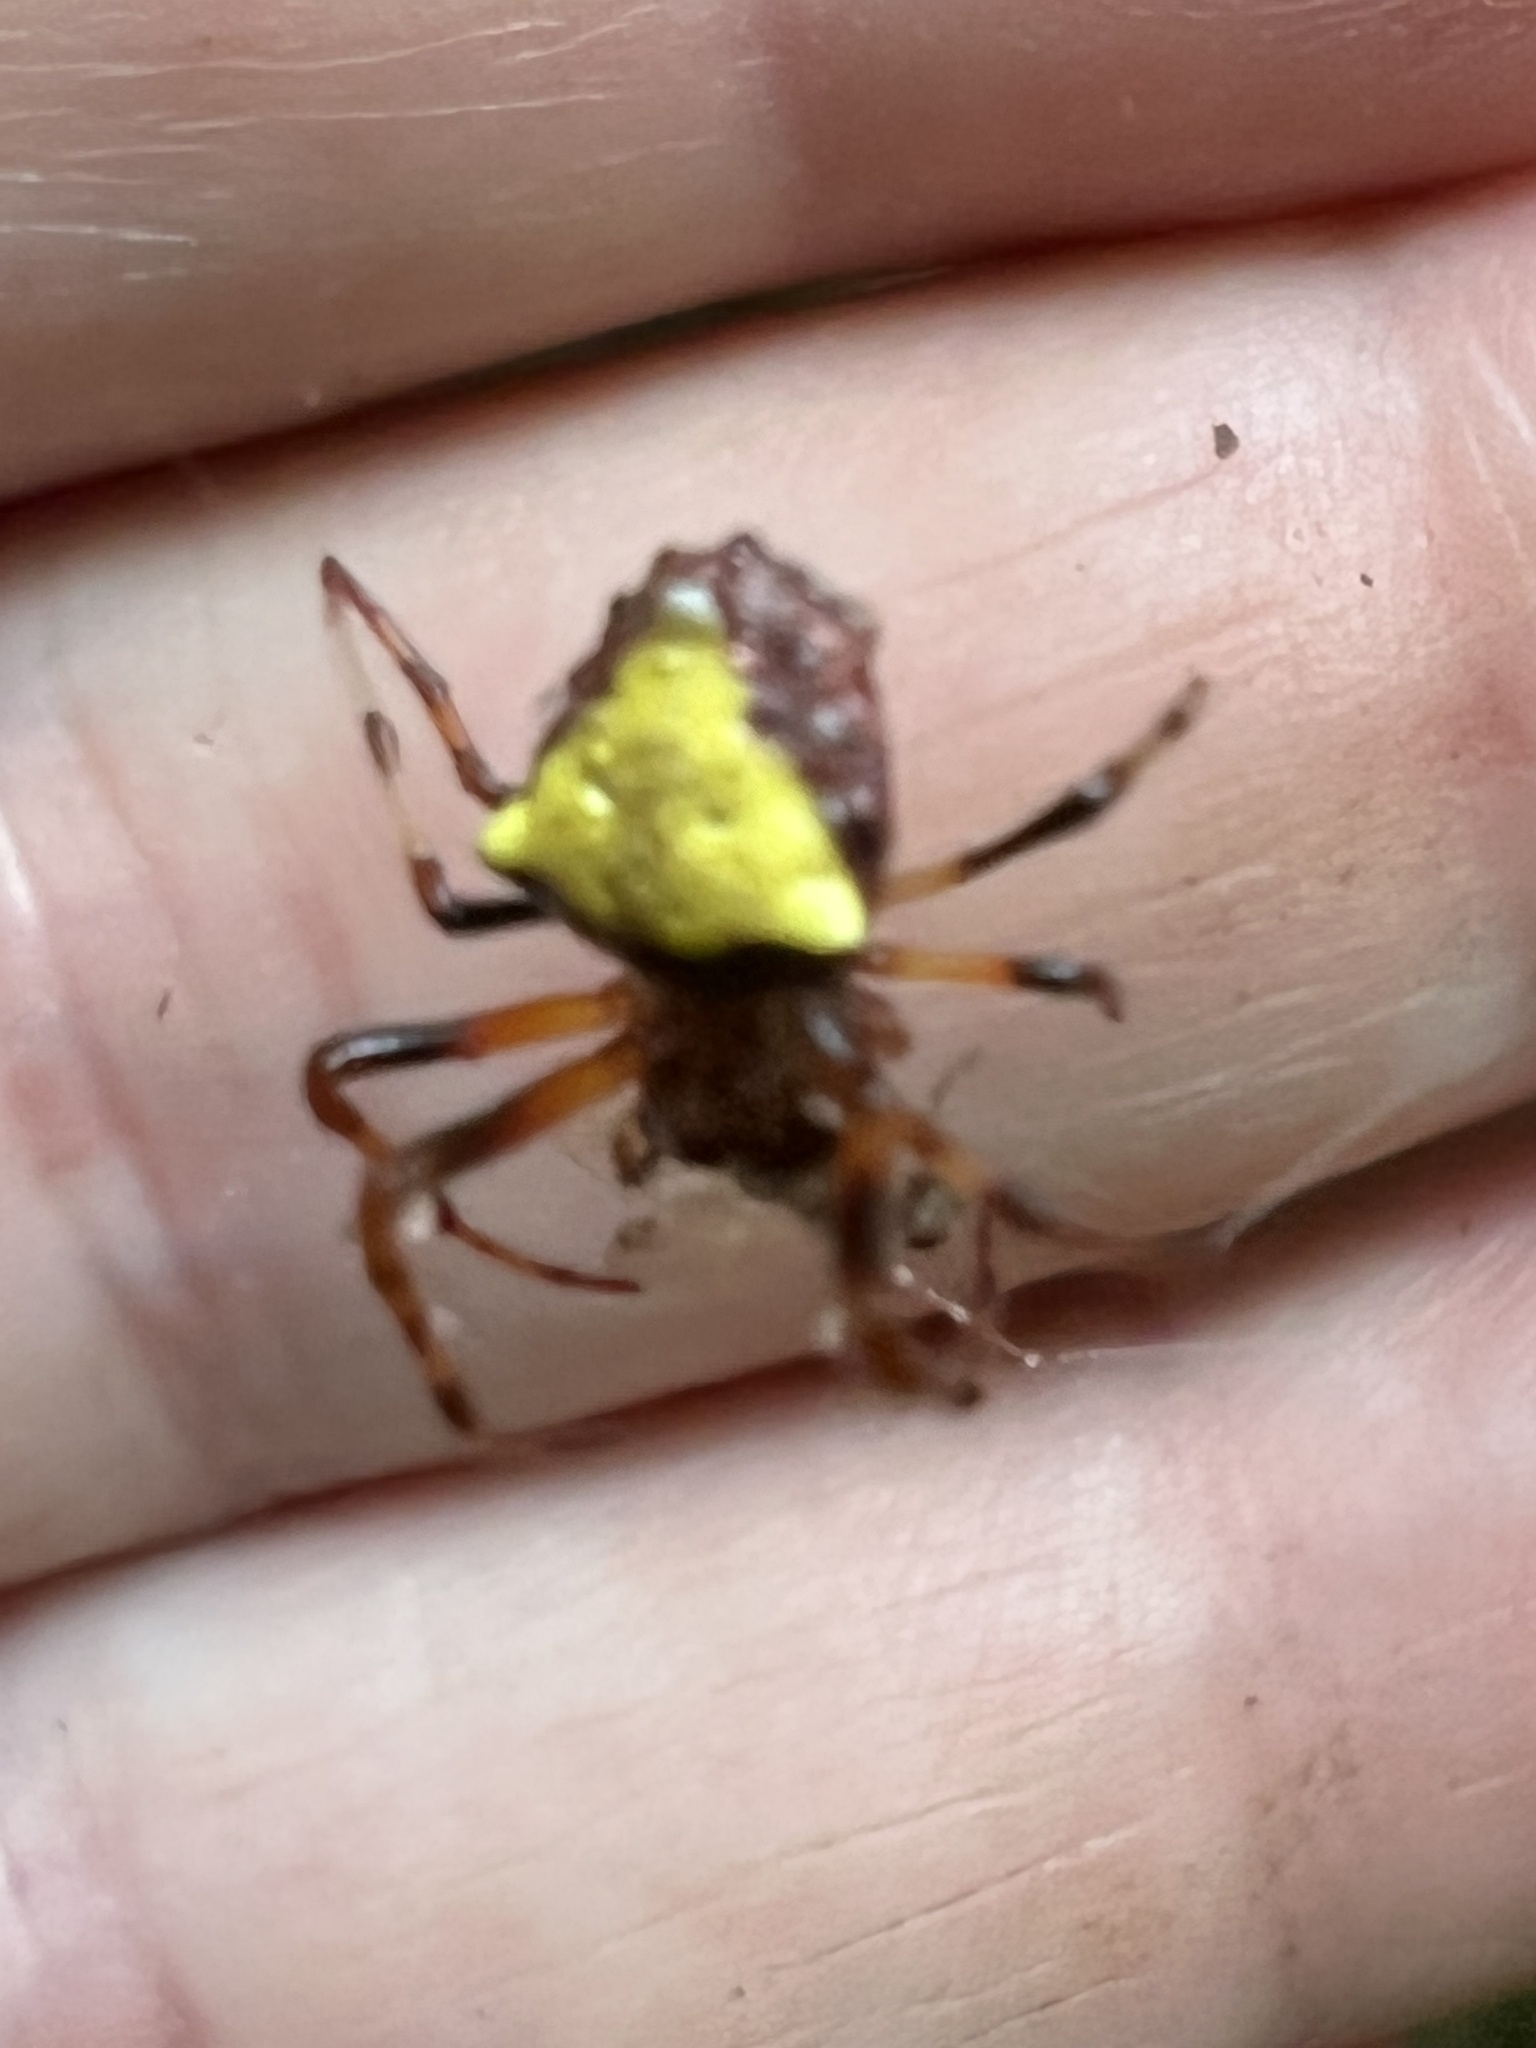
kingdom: Animalia
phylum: Arthropoda
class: Arachnida
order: Araneae
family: Araneidae
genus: Verrucosa
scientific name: Verrucosa arenata
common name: Orb weavers
